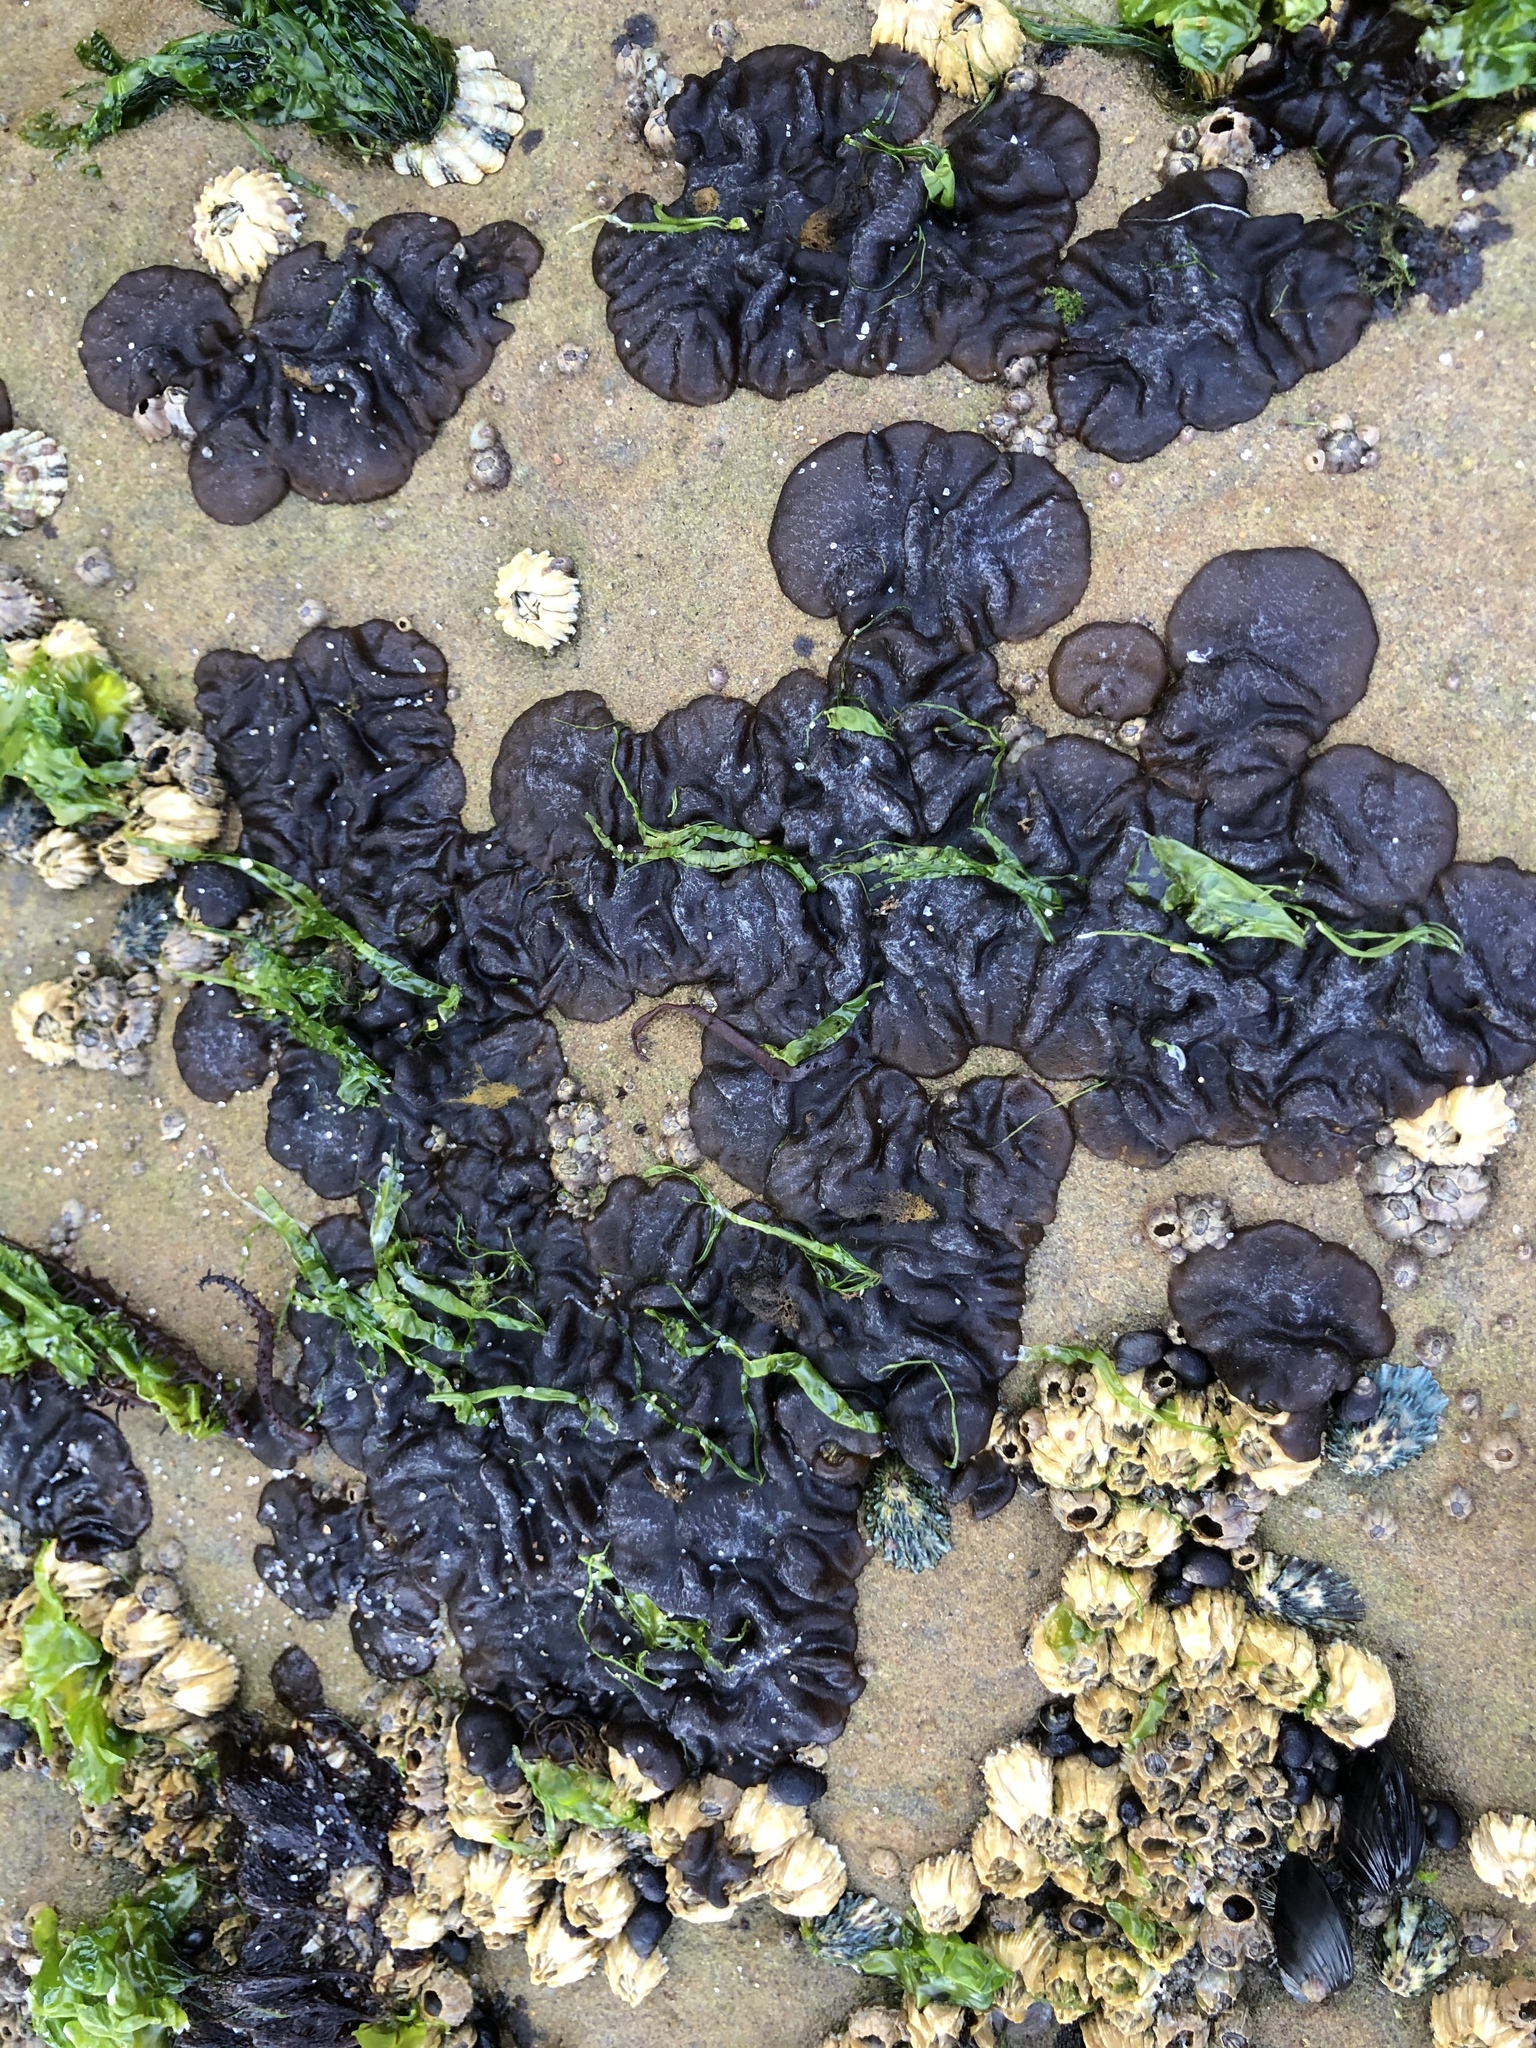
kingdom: Chromista
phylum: Ochrophyta
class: Phaeophyceae
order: Ectocarpales
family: Petrospongiaceae
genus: Petrospongium
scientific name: Petrospongium rugosum
